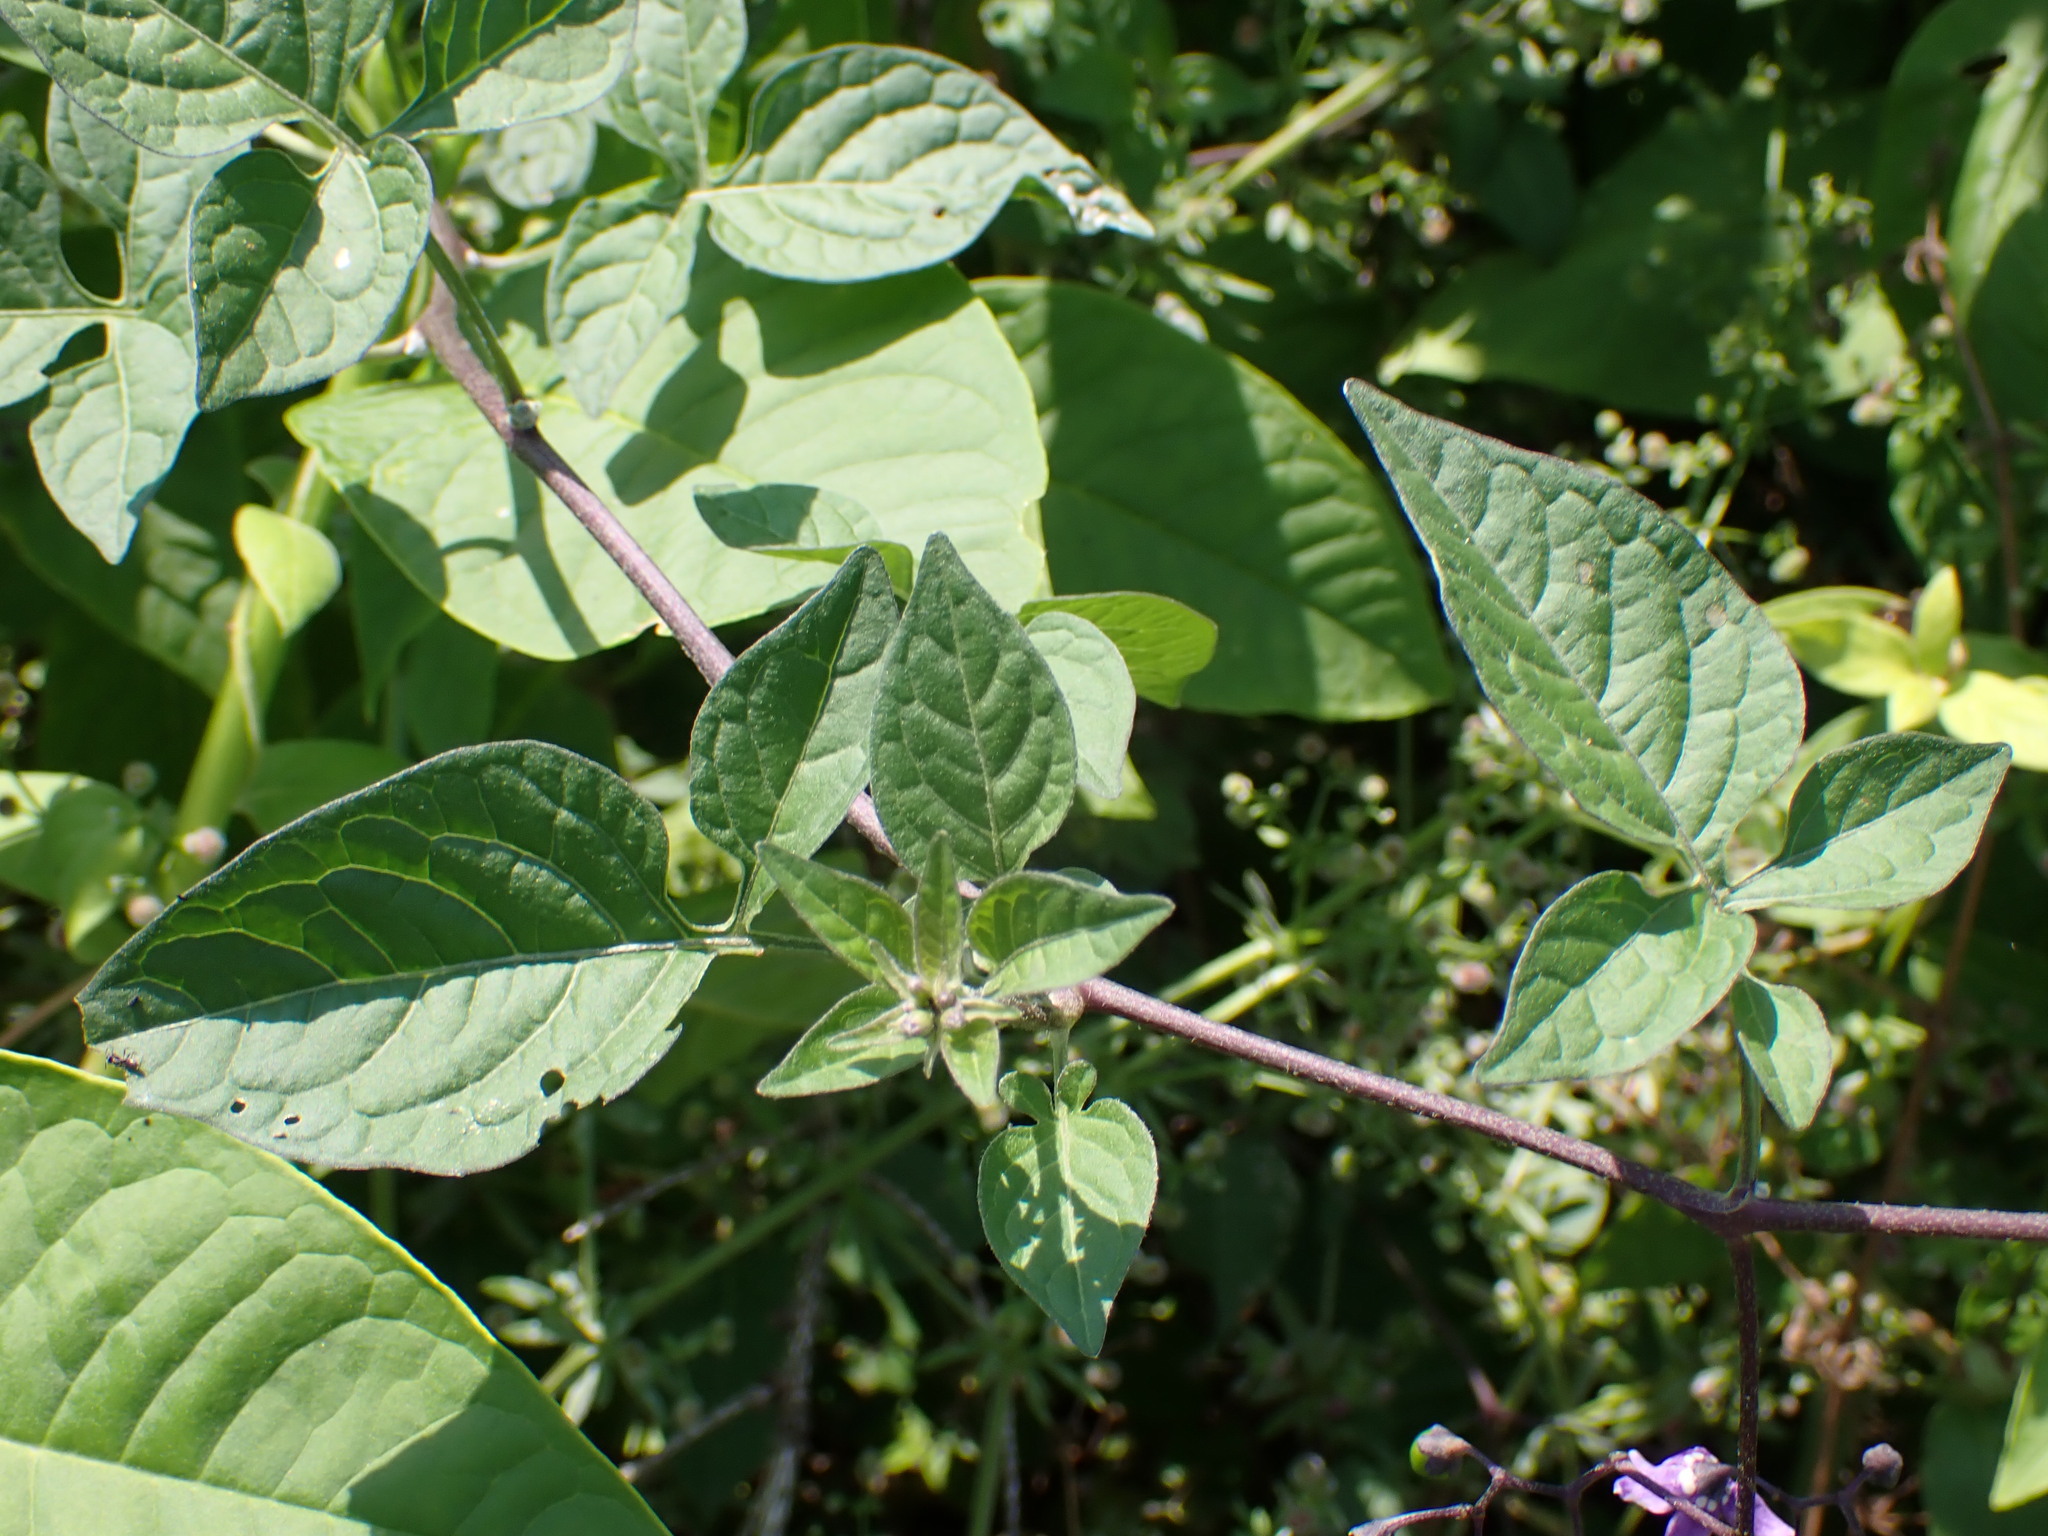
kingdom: Plantae
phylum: Tracheophyta
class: Magnoliopsida
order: Solanales
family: Solanaceae
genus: Solanum
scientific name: Solanum dulcamara
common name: Climbing nightshade
